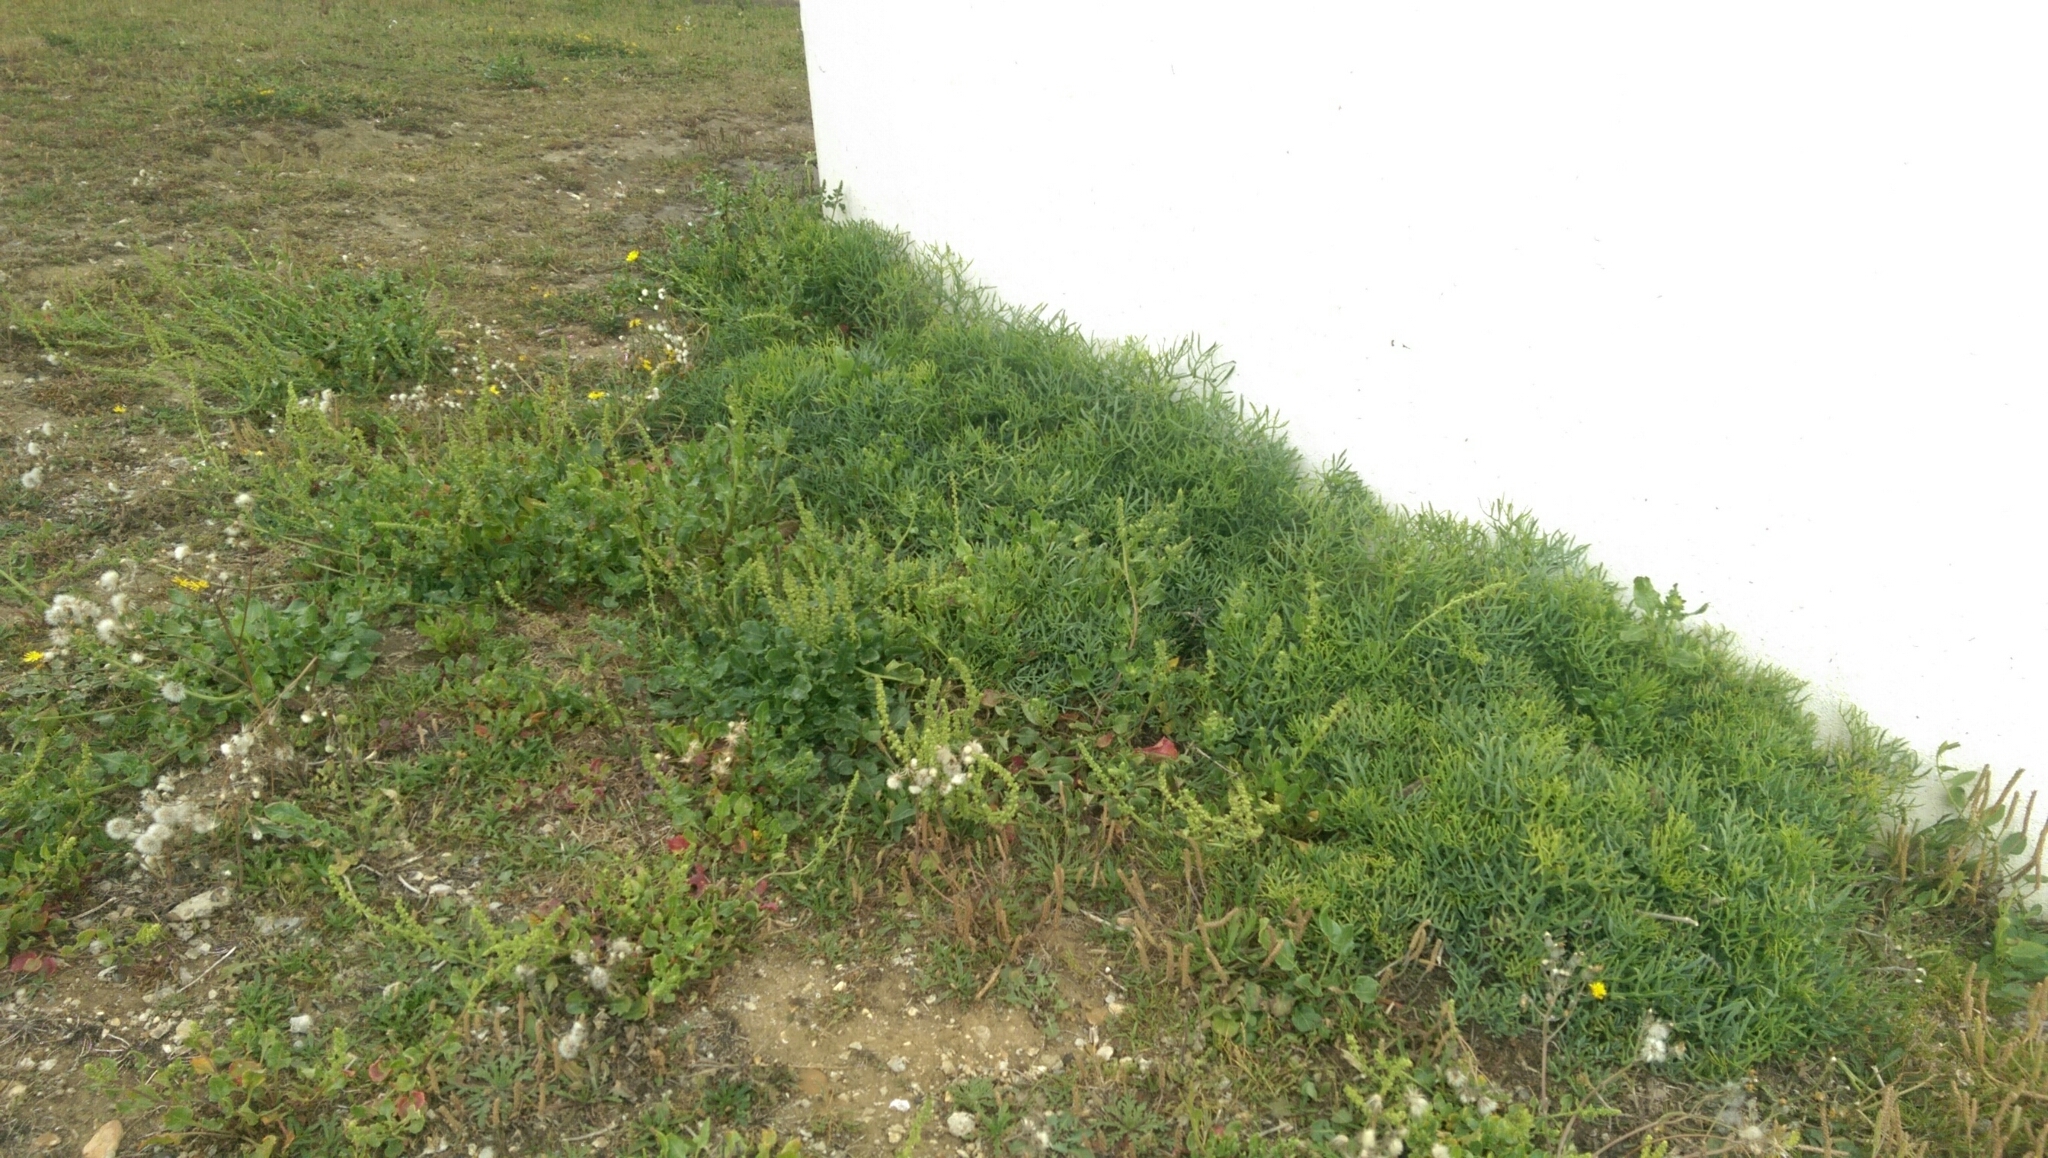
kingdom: Plantae
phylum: Tracheophyta
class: Magnoliopsida
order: Apiales
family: Apiaceae
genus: Crithmum
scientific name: Crithmum maritimum
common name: Rock samphire
